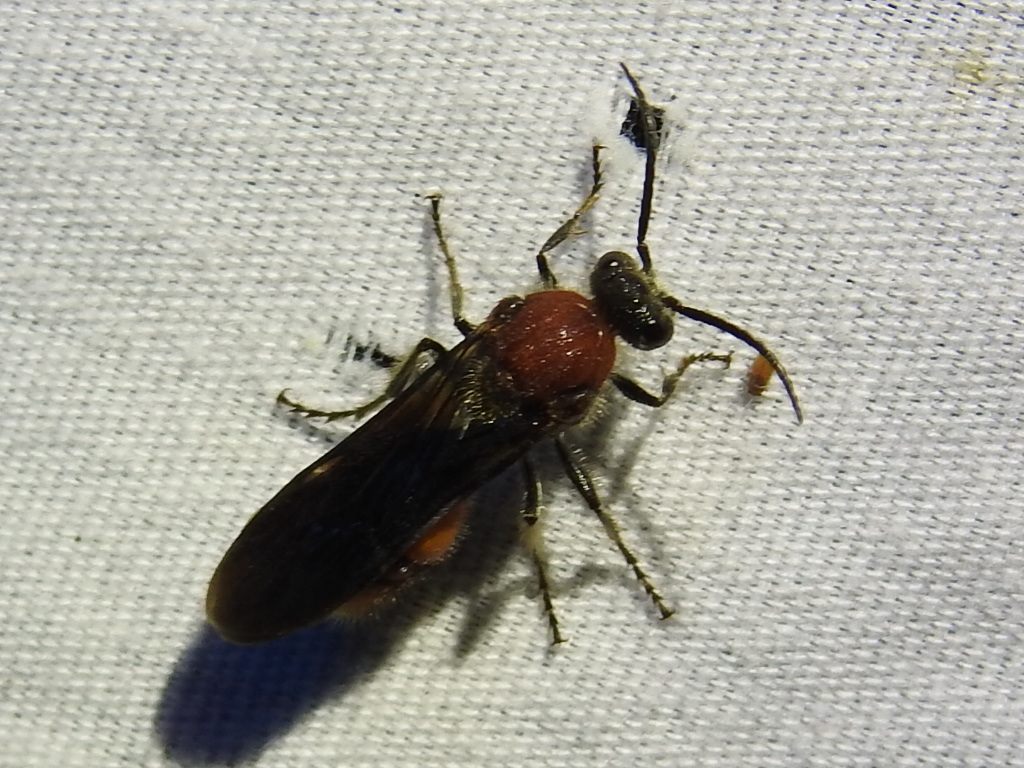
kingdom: Animalia
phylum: Arthropoda
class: Insecta
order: Hymenoptera
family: Mutillidae
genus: Timulla
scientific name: Timulla
